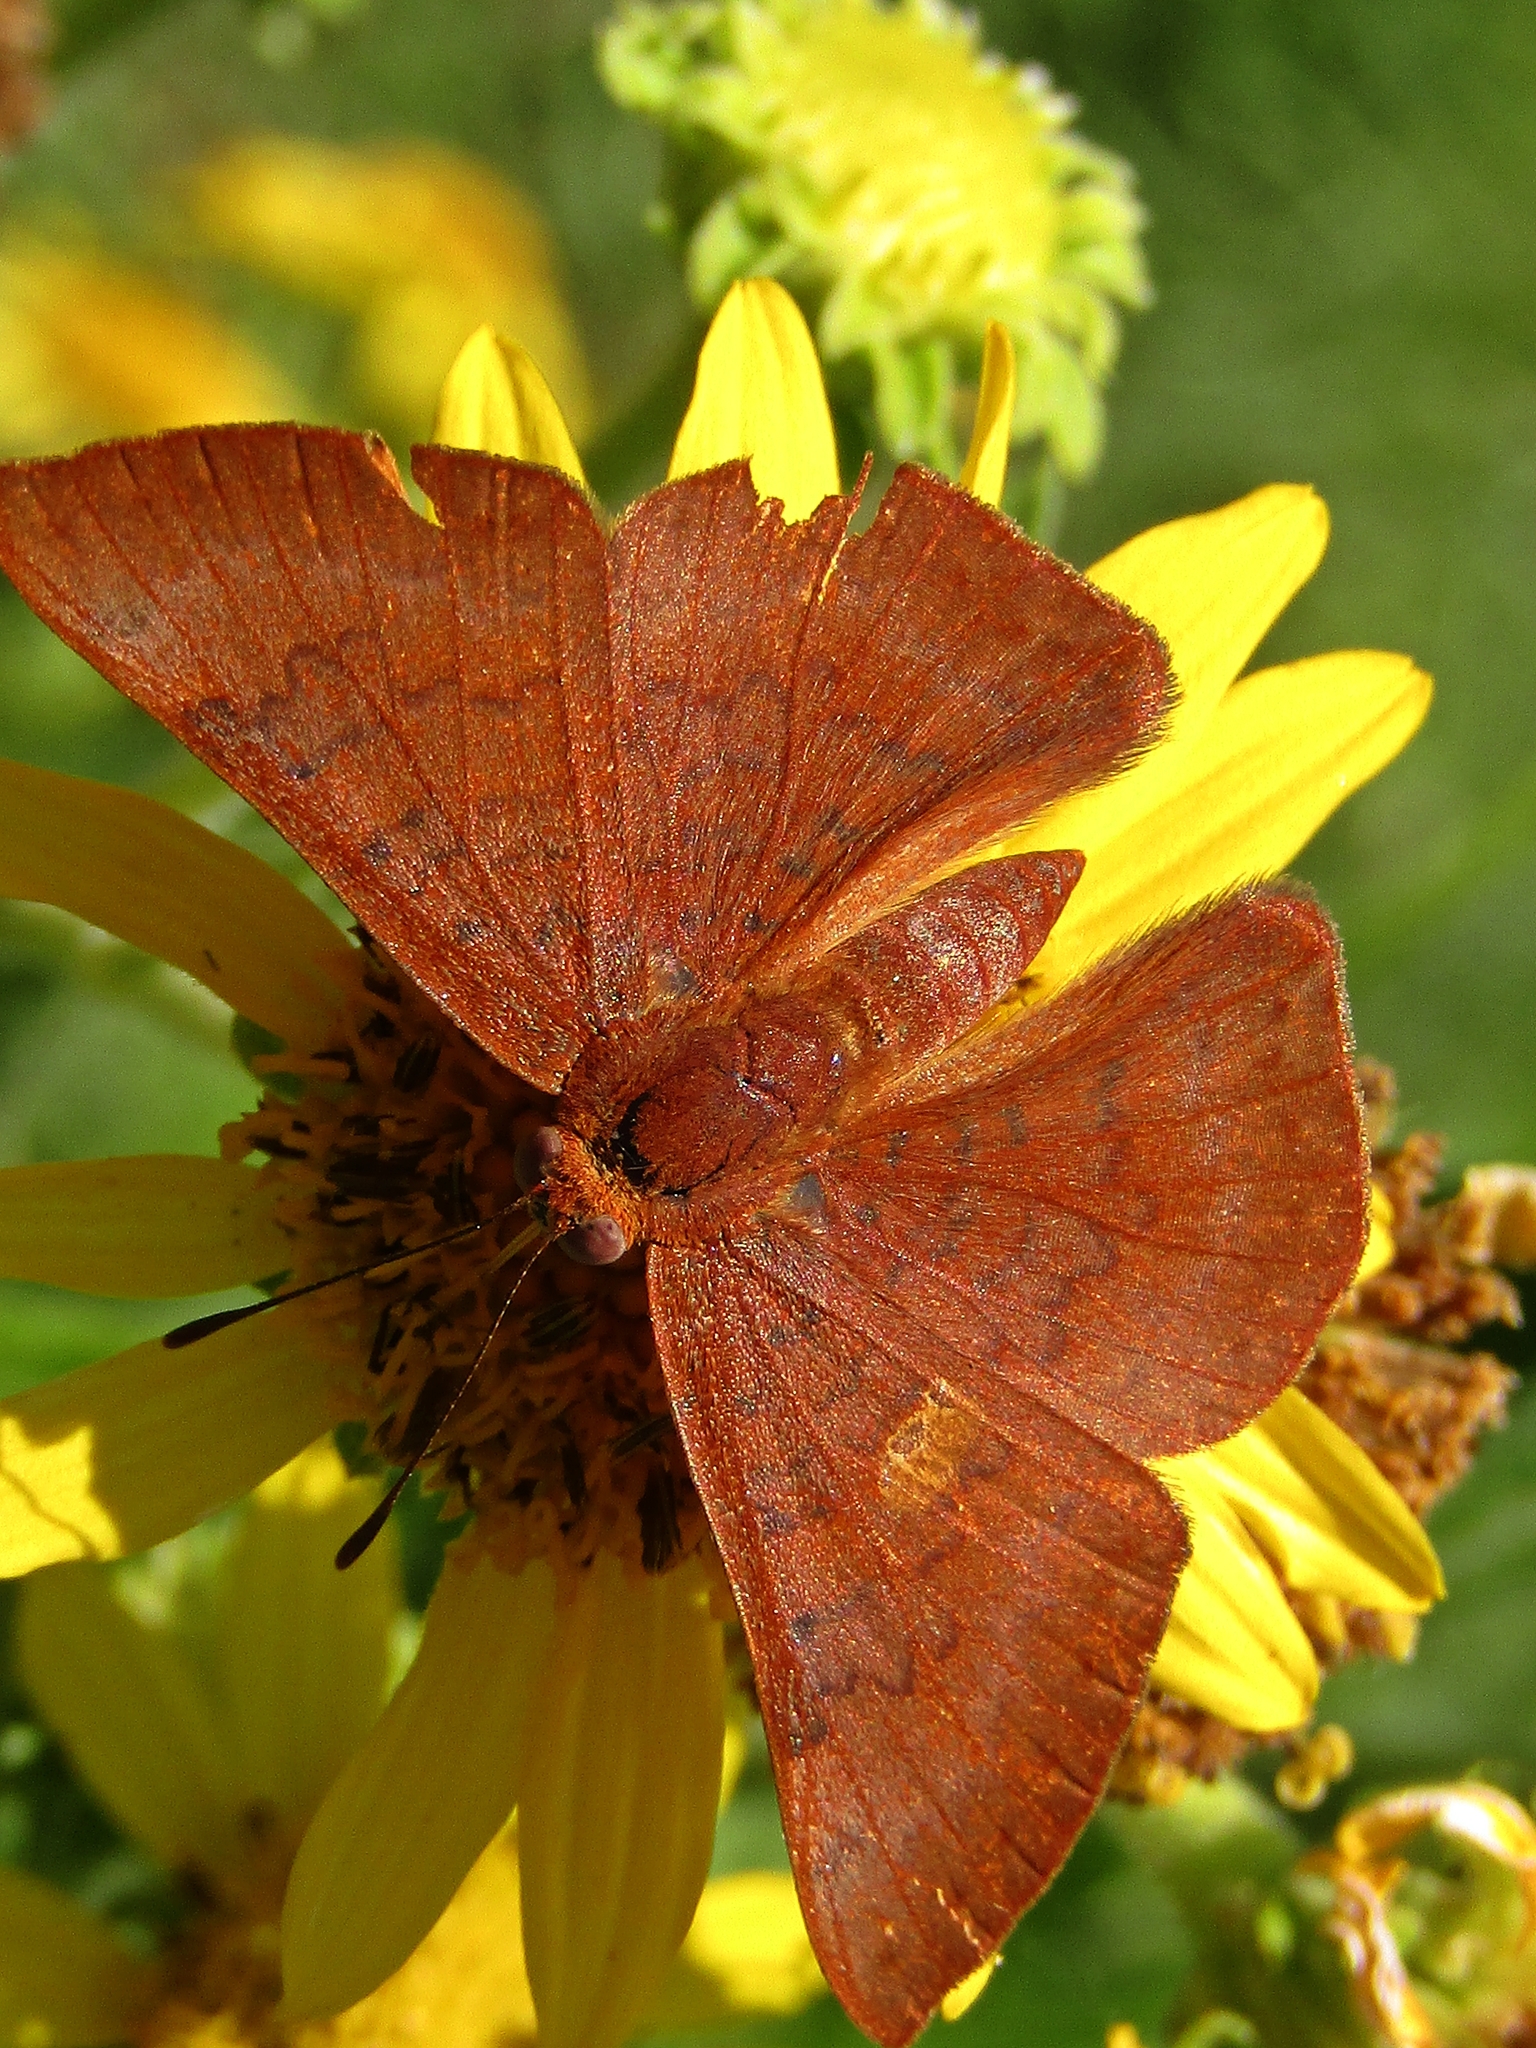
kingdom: Animalia
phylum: Arthropoda
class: Insecta
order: Lepidoptera
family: Lycaenidae
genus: Emesis
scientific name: Emesis russula
